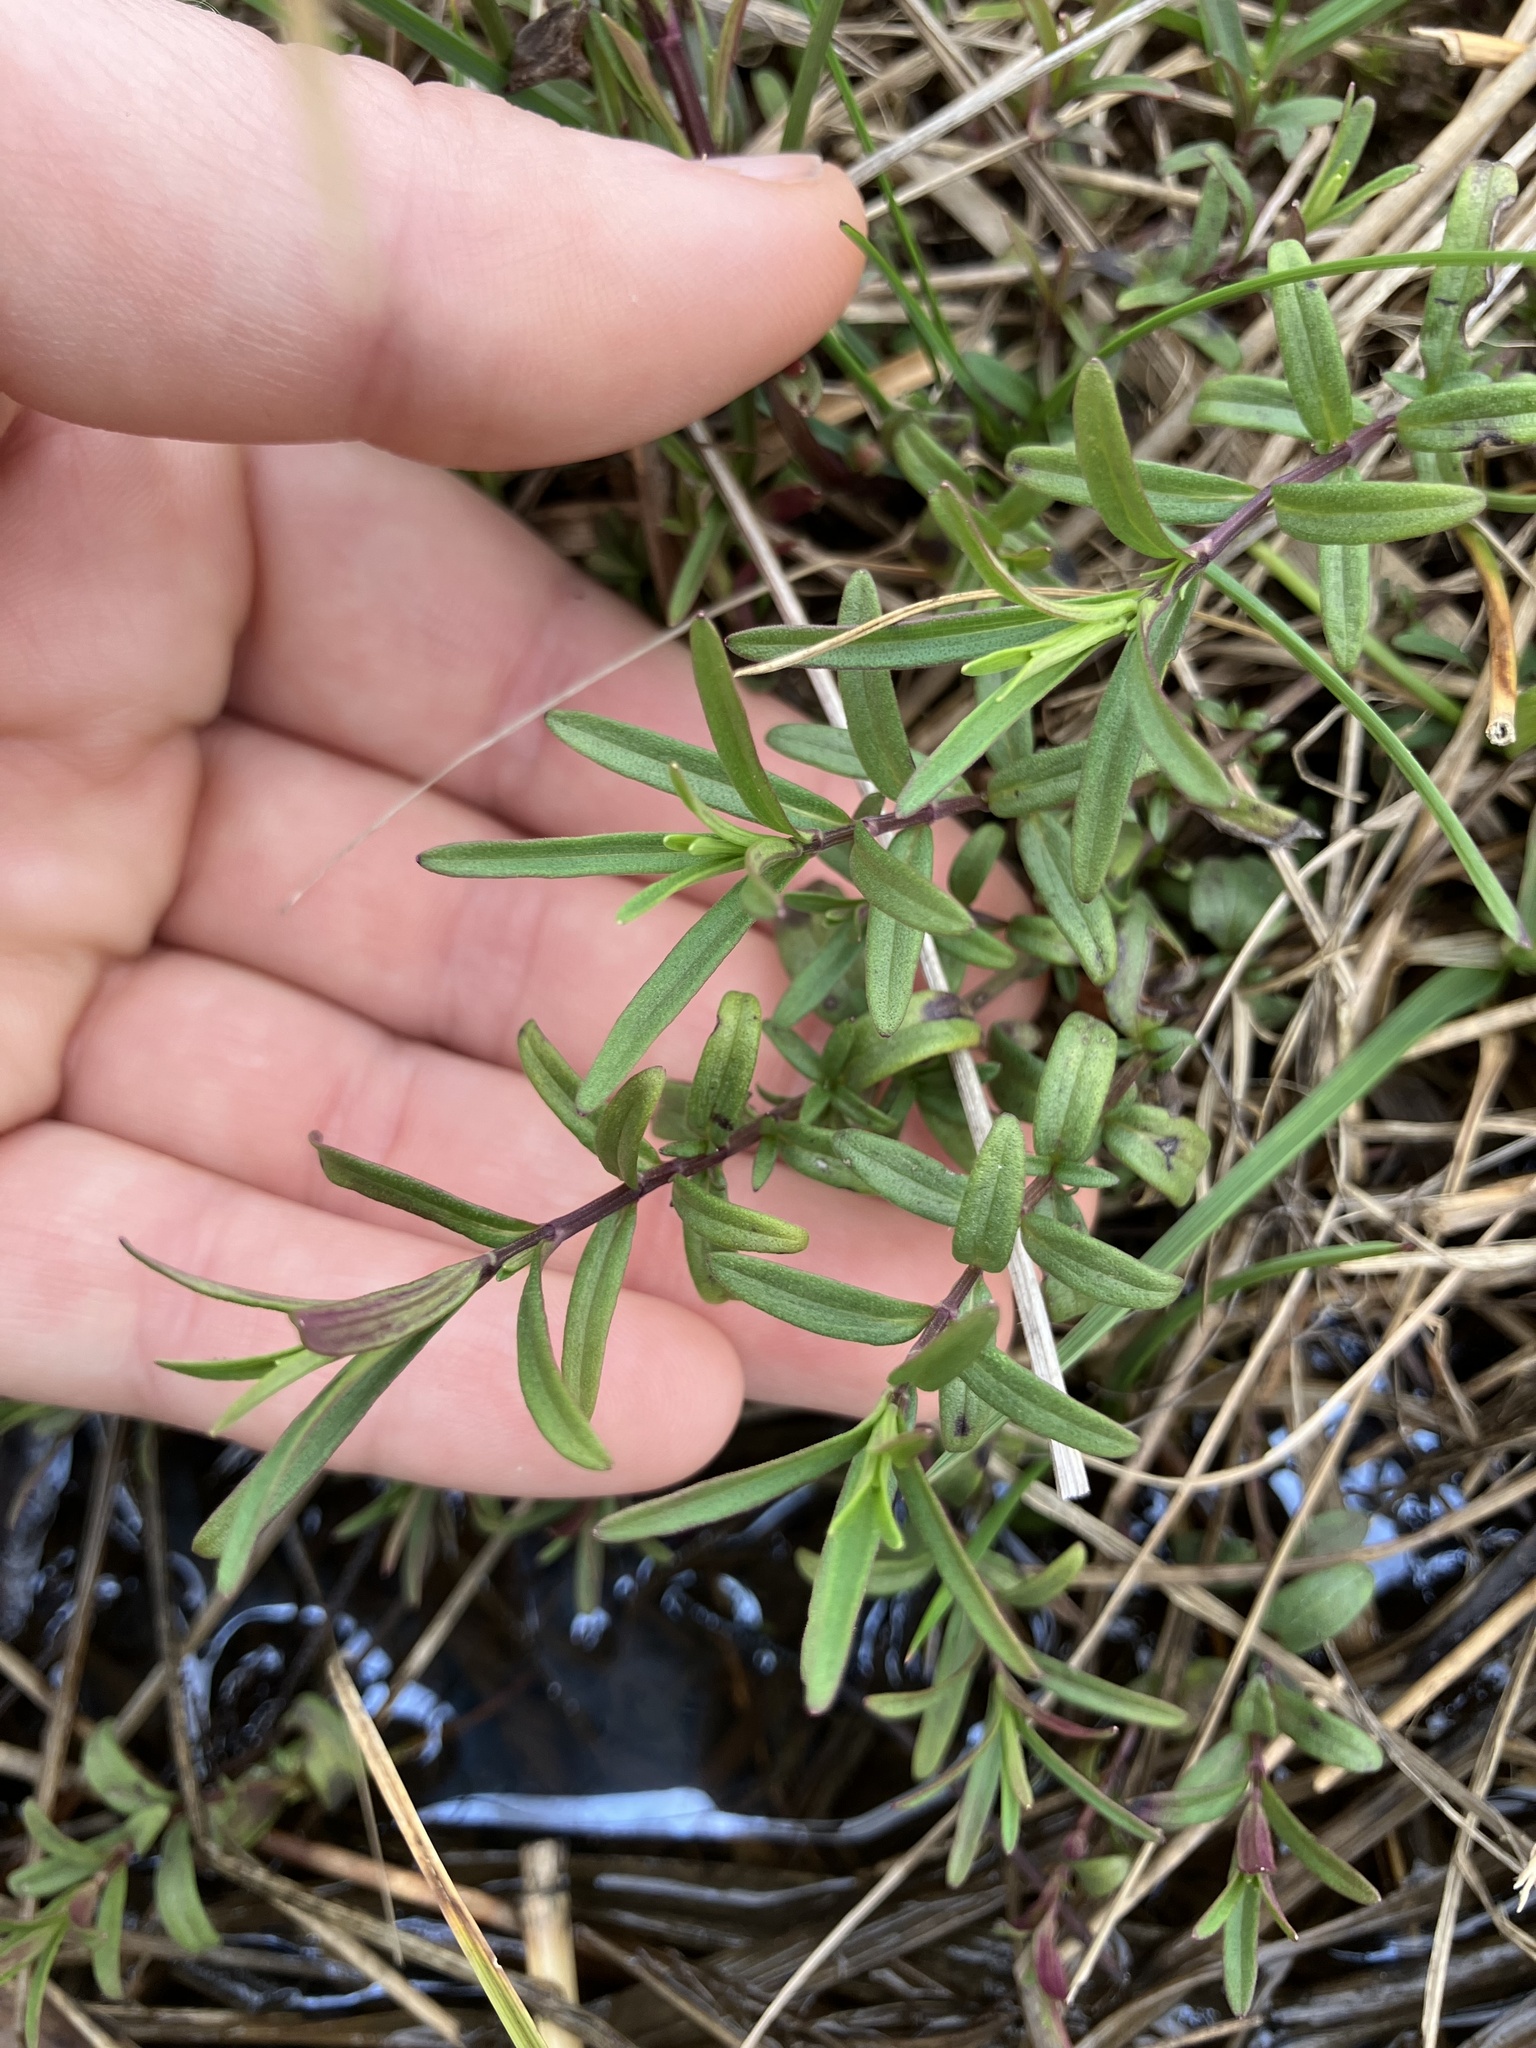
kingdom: Plantae
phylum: Tracheophyta
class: Magnoliopsida
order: Lamiales
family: Lamiaceae
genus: Salvia
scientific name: Salvia rosmarinus
